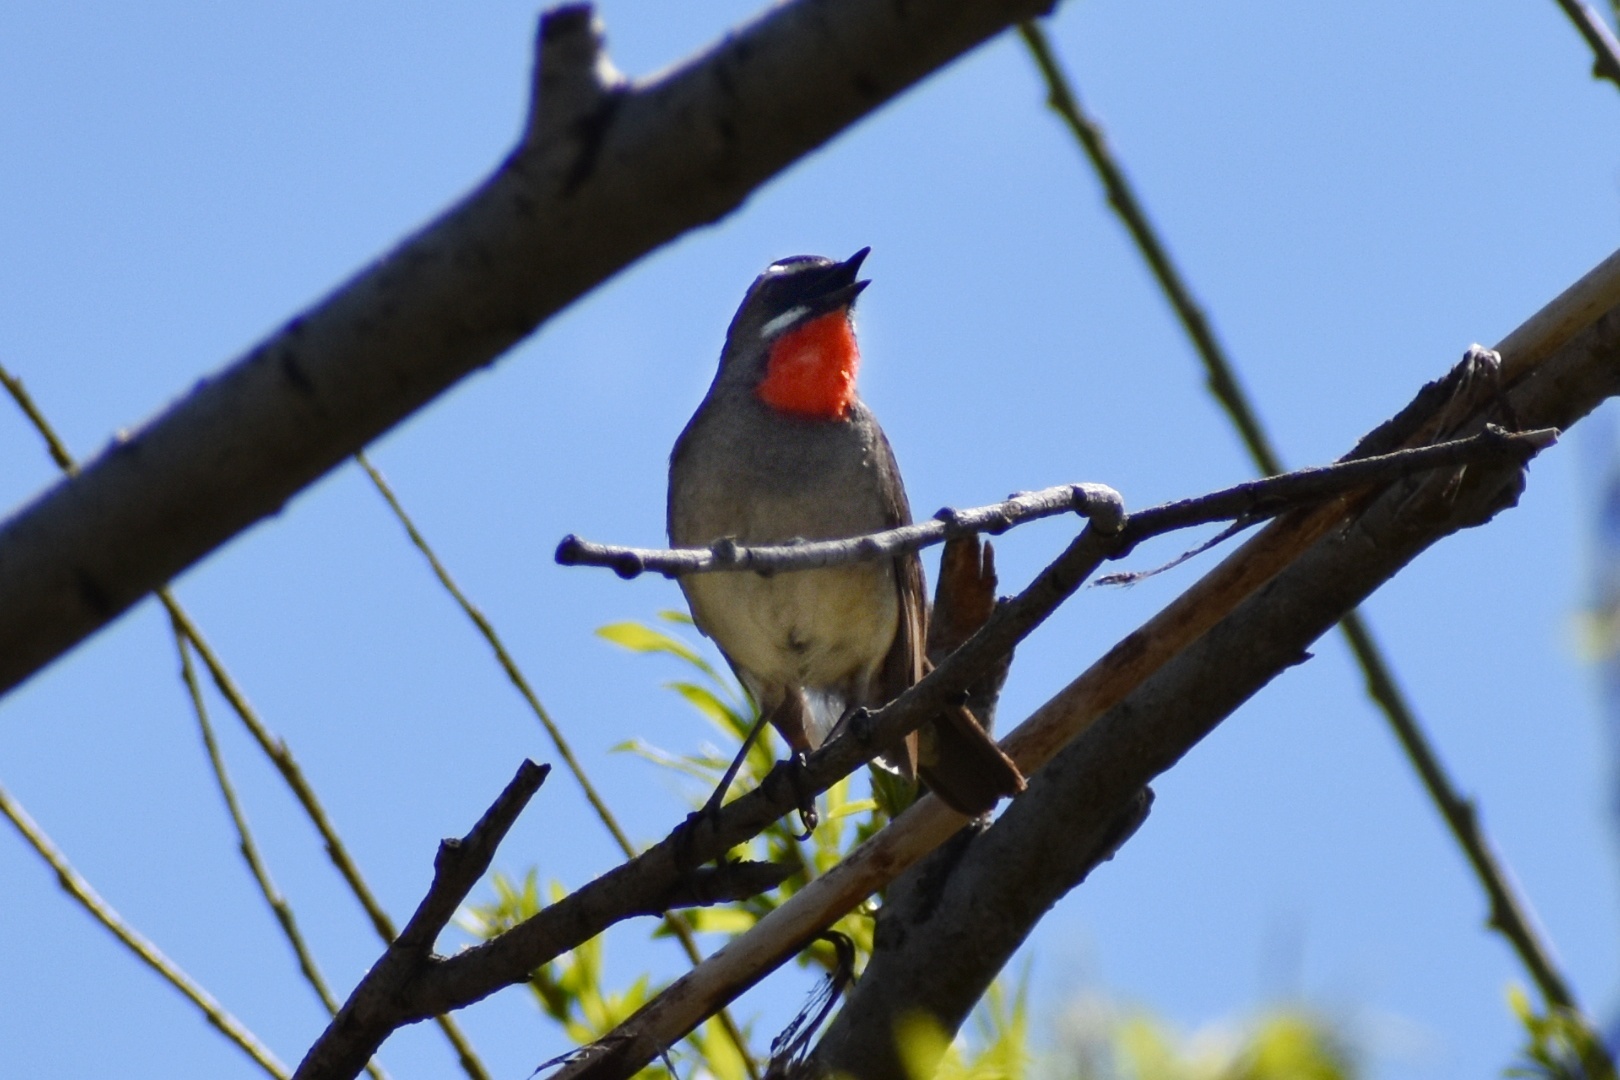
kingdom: Animalia
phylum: Chordata
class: Aves
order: Passeriformes
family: Muscicapidae
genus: Luscinia
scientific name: Luscinia calliope
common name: Siberian rubythroat
